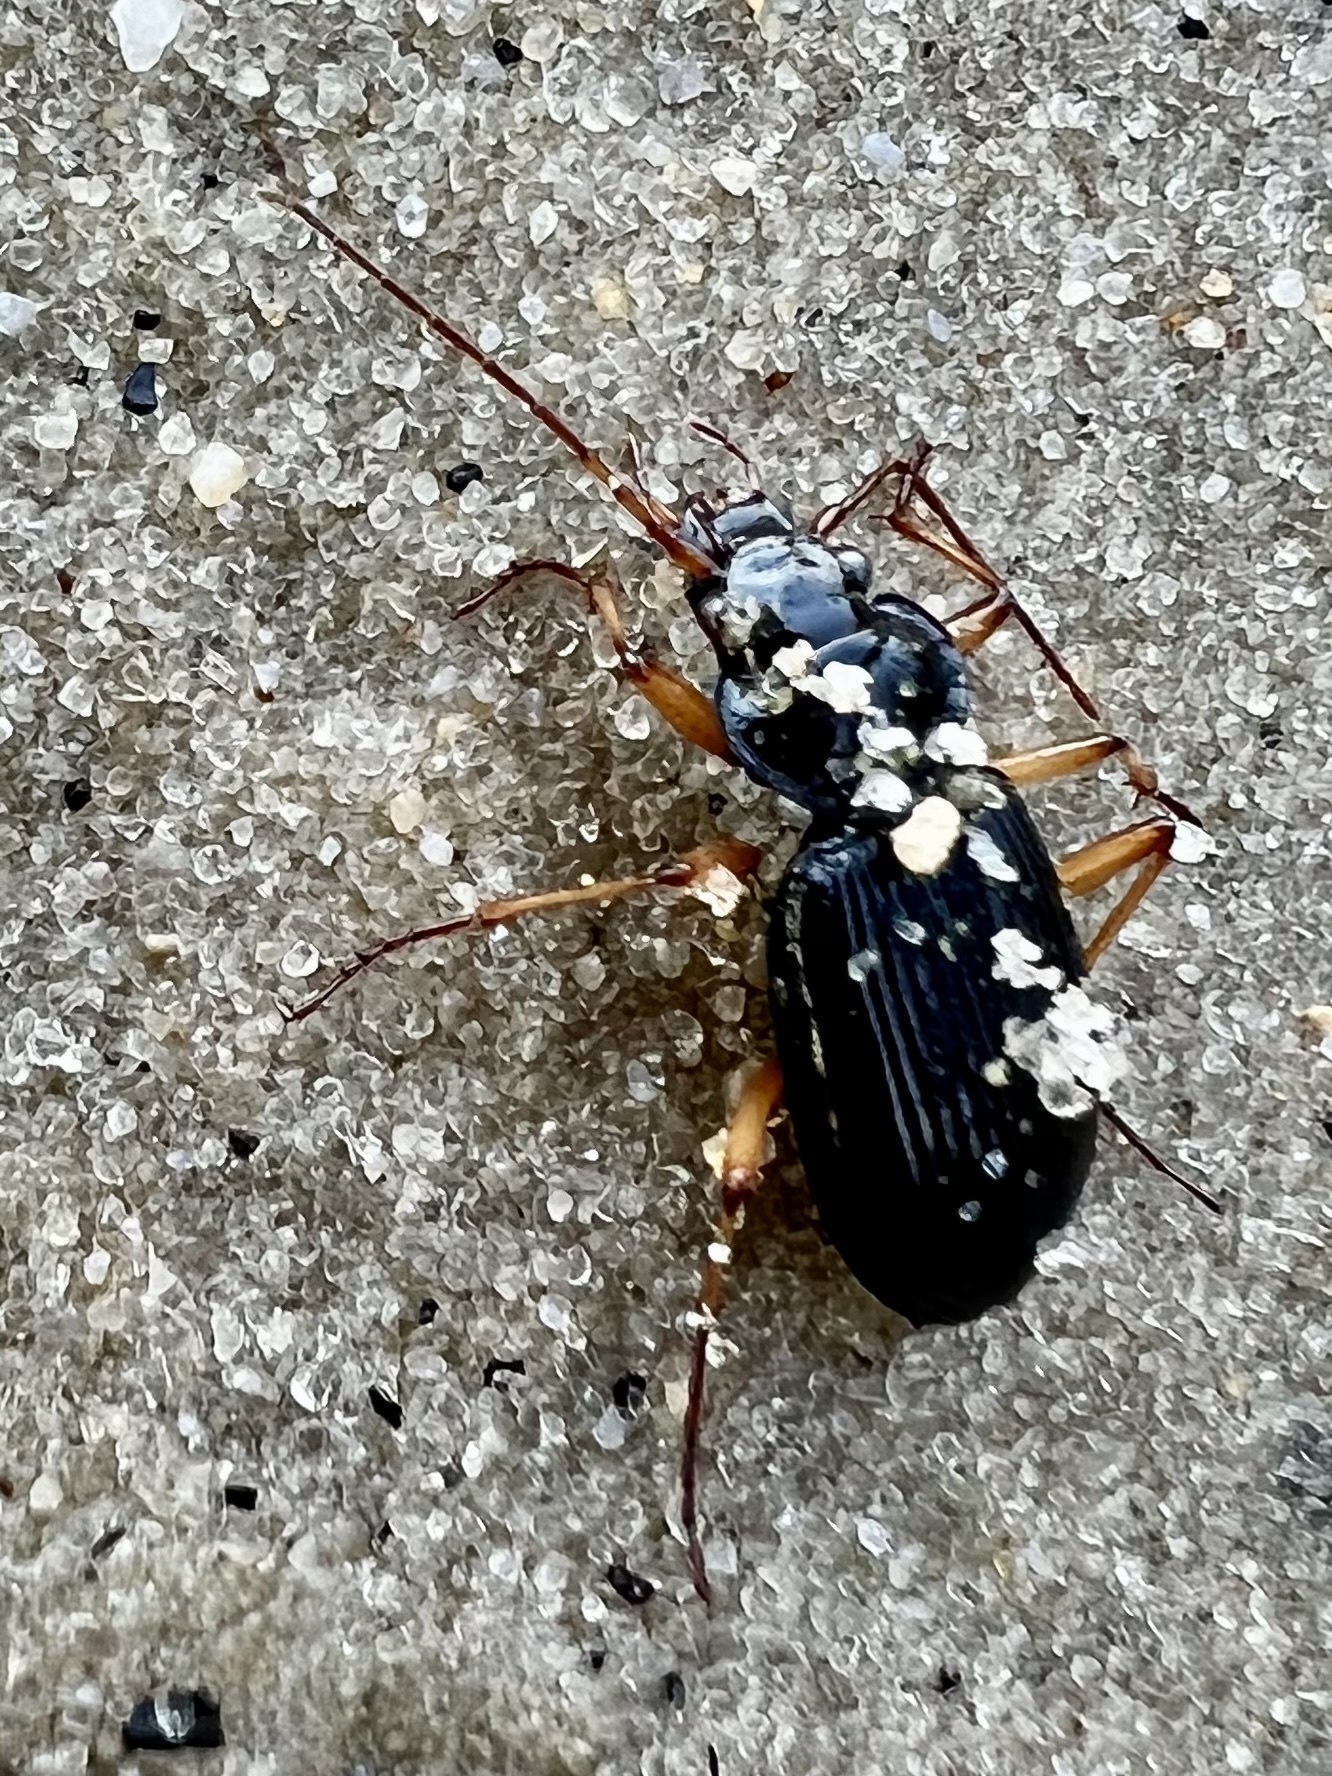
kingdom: Animalia
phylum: Arthropoda
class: Insecta
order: Coleoptera
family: Carabidae
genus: Nebria
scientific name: Nebria lacustris
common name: Lacustrine gazelle beetle
